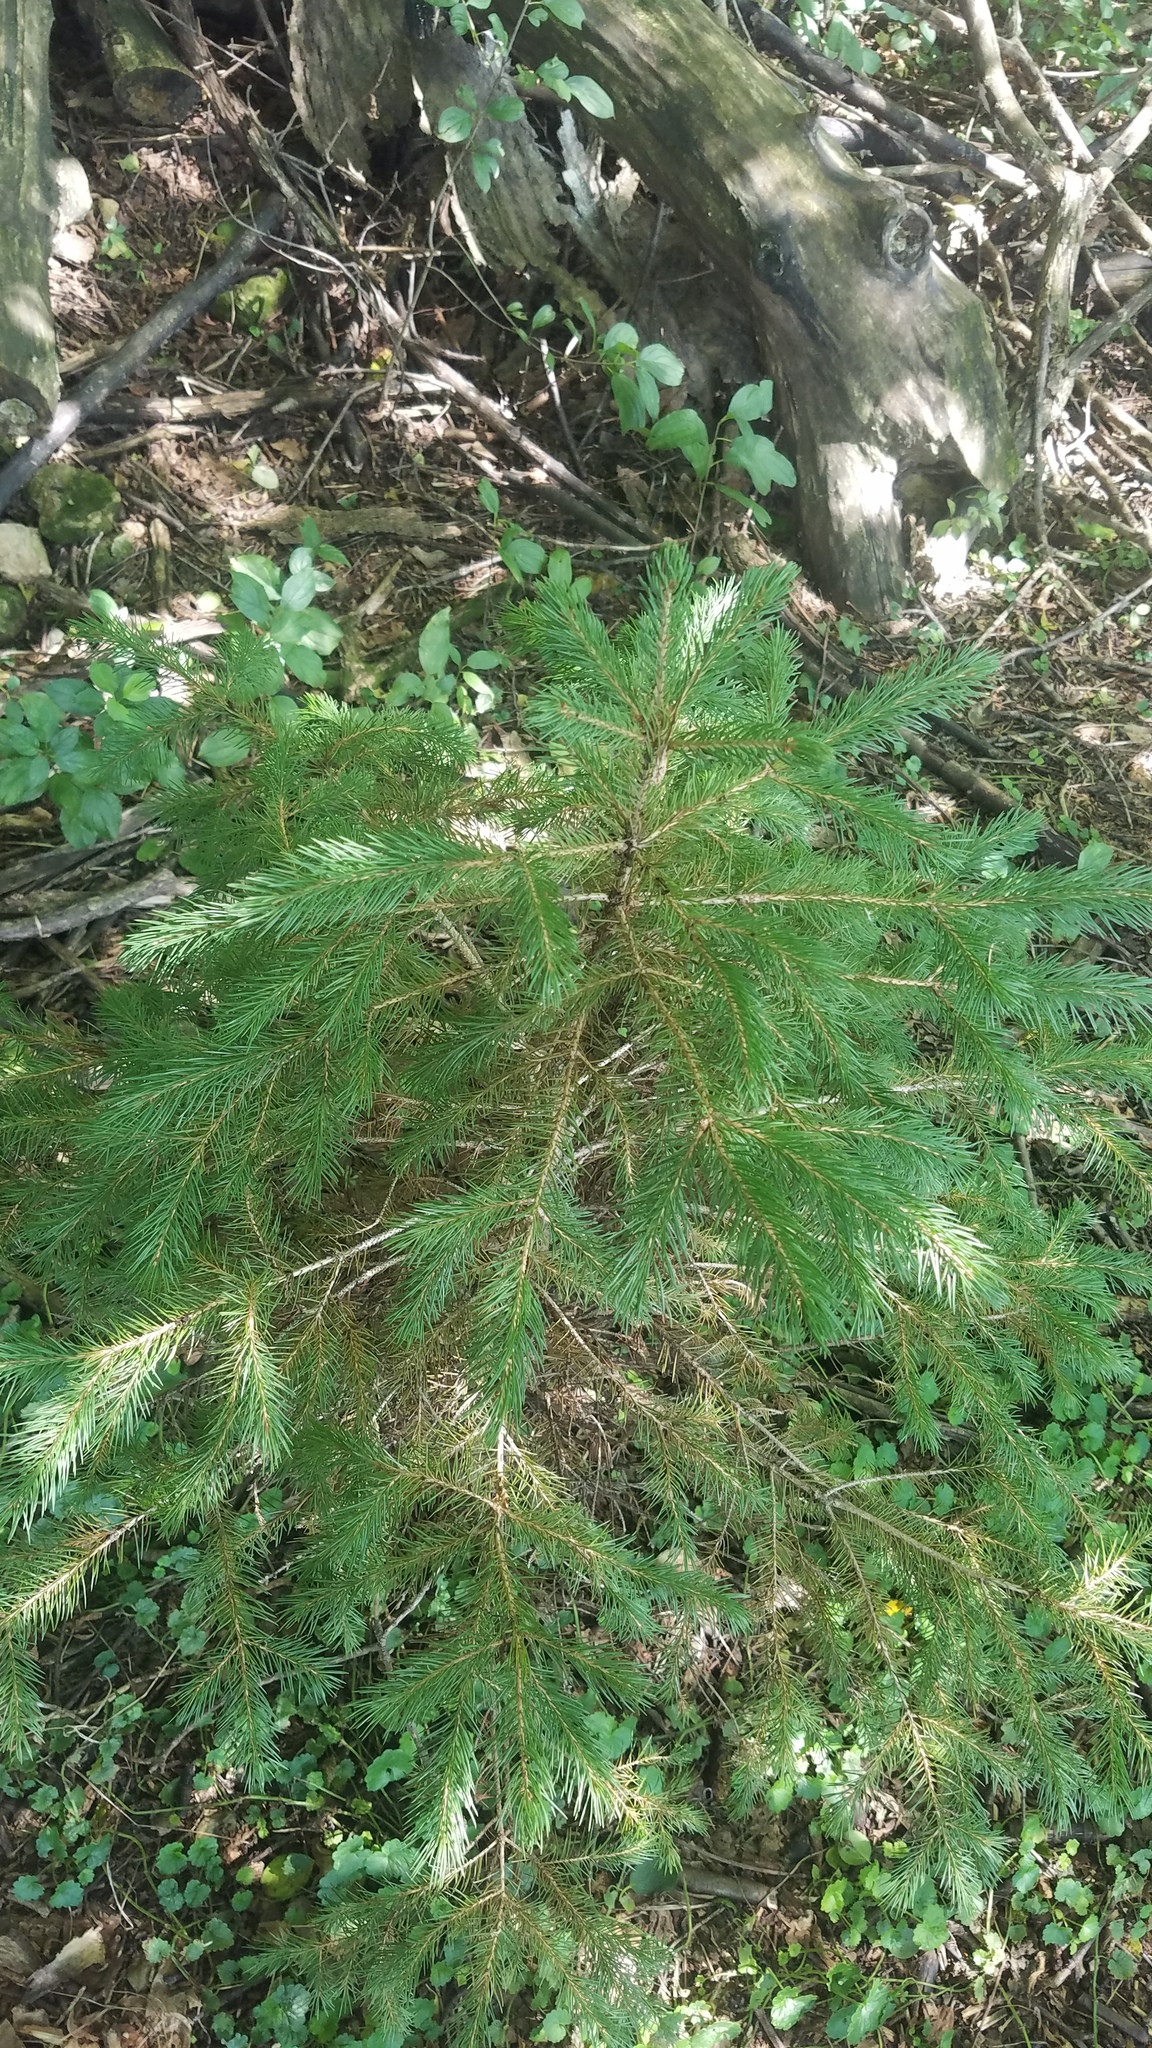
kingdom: Plantae
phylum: Tracheophyta
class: Pinopsida
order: Pinales
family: Pinaceae
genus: Picea
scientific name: Picea glauca
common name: White spruce
